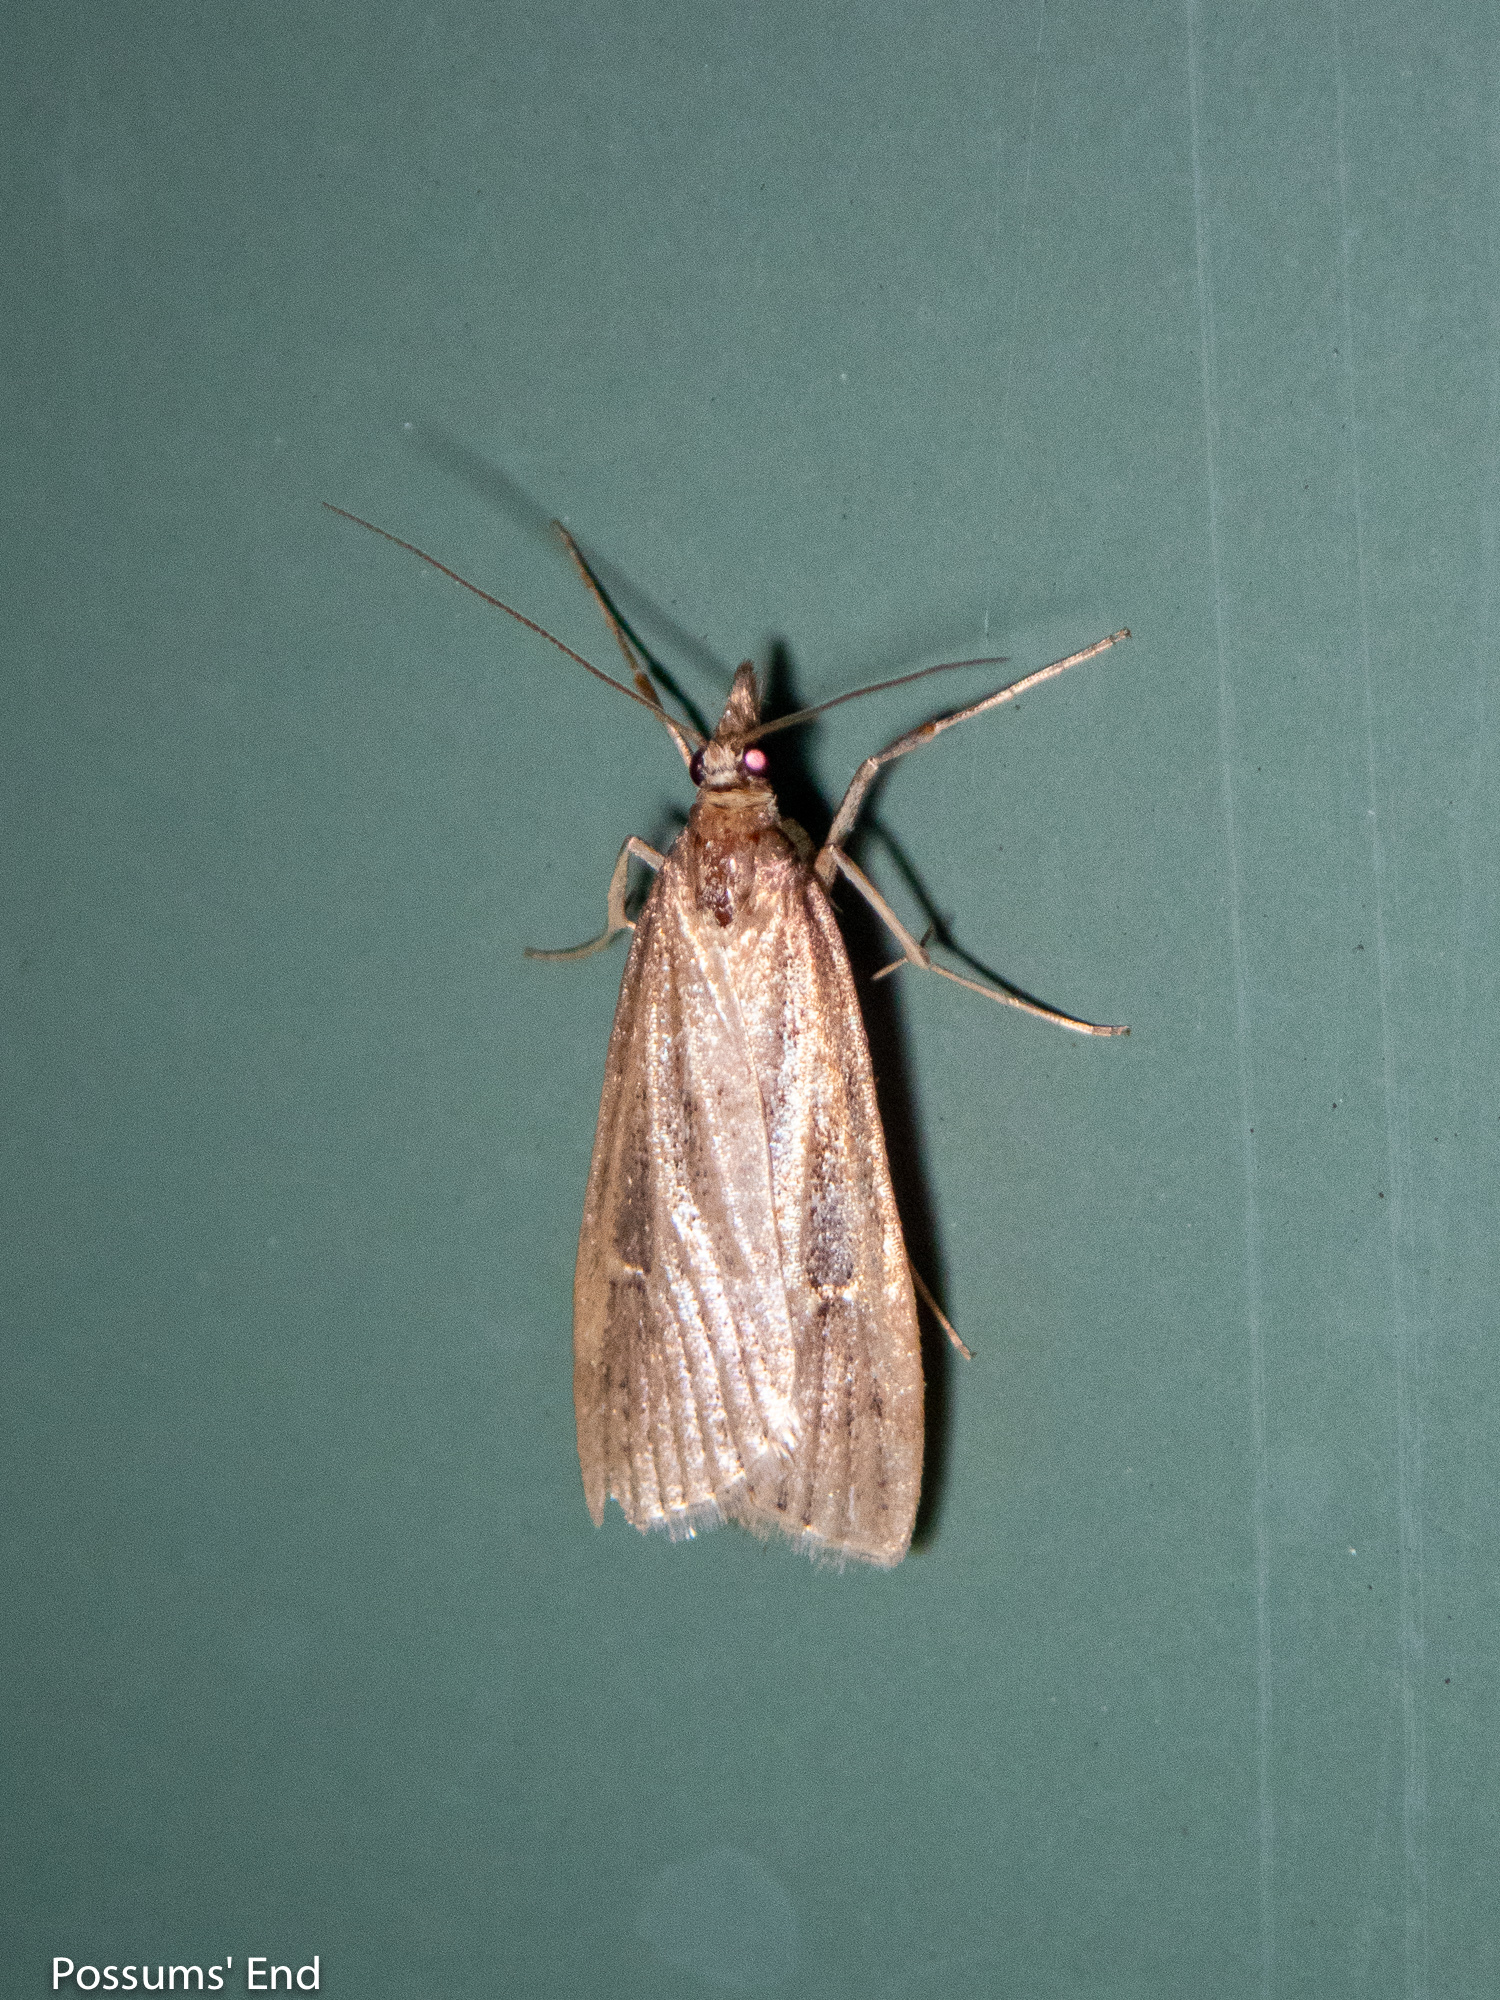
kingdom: Animalia
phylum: Arthropoda
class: Insecta
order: Lepidoptera
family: Crambidae
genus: Eudonia
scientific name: Eudonia octophora
